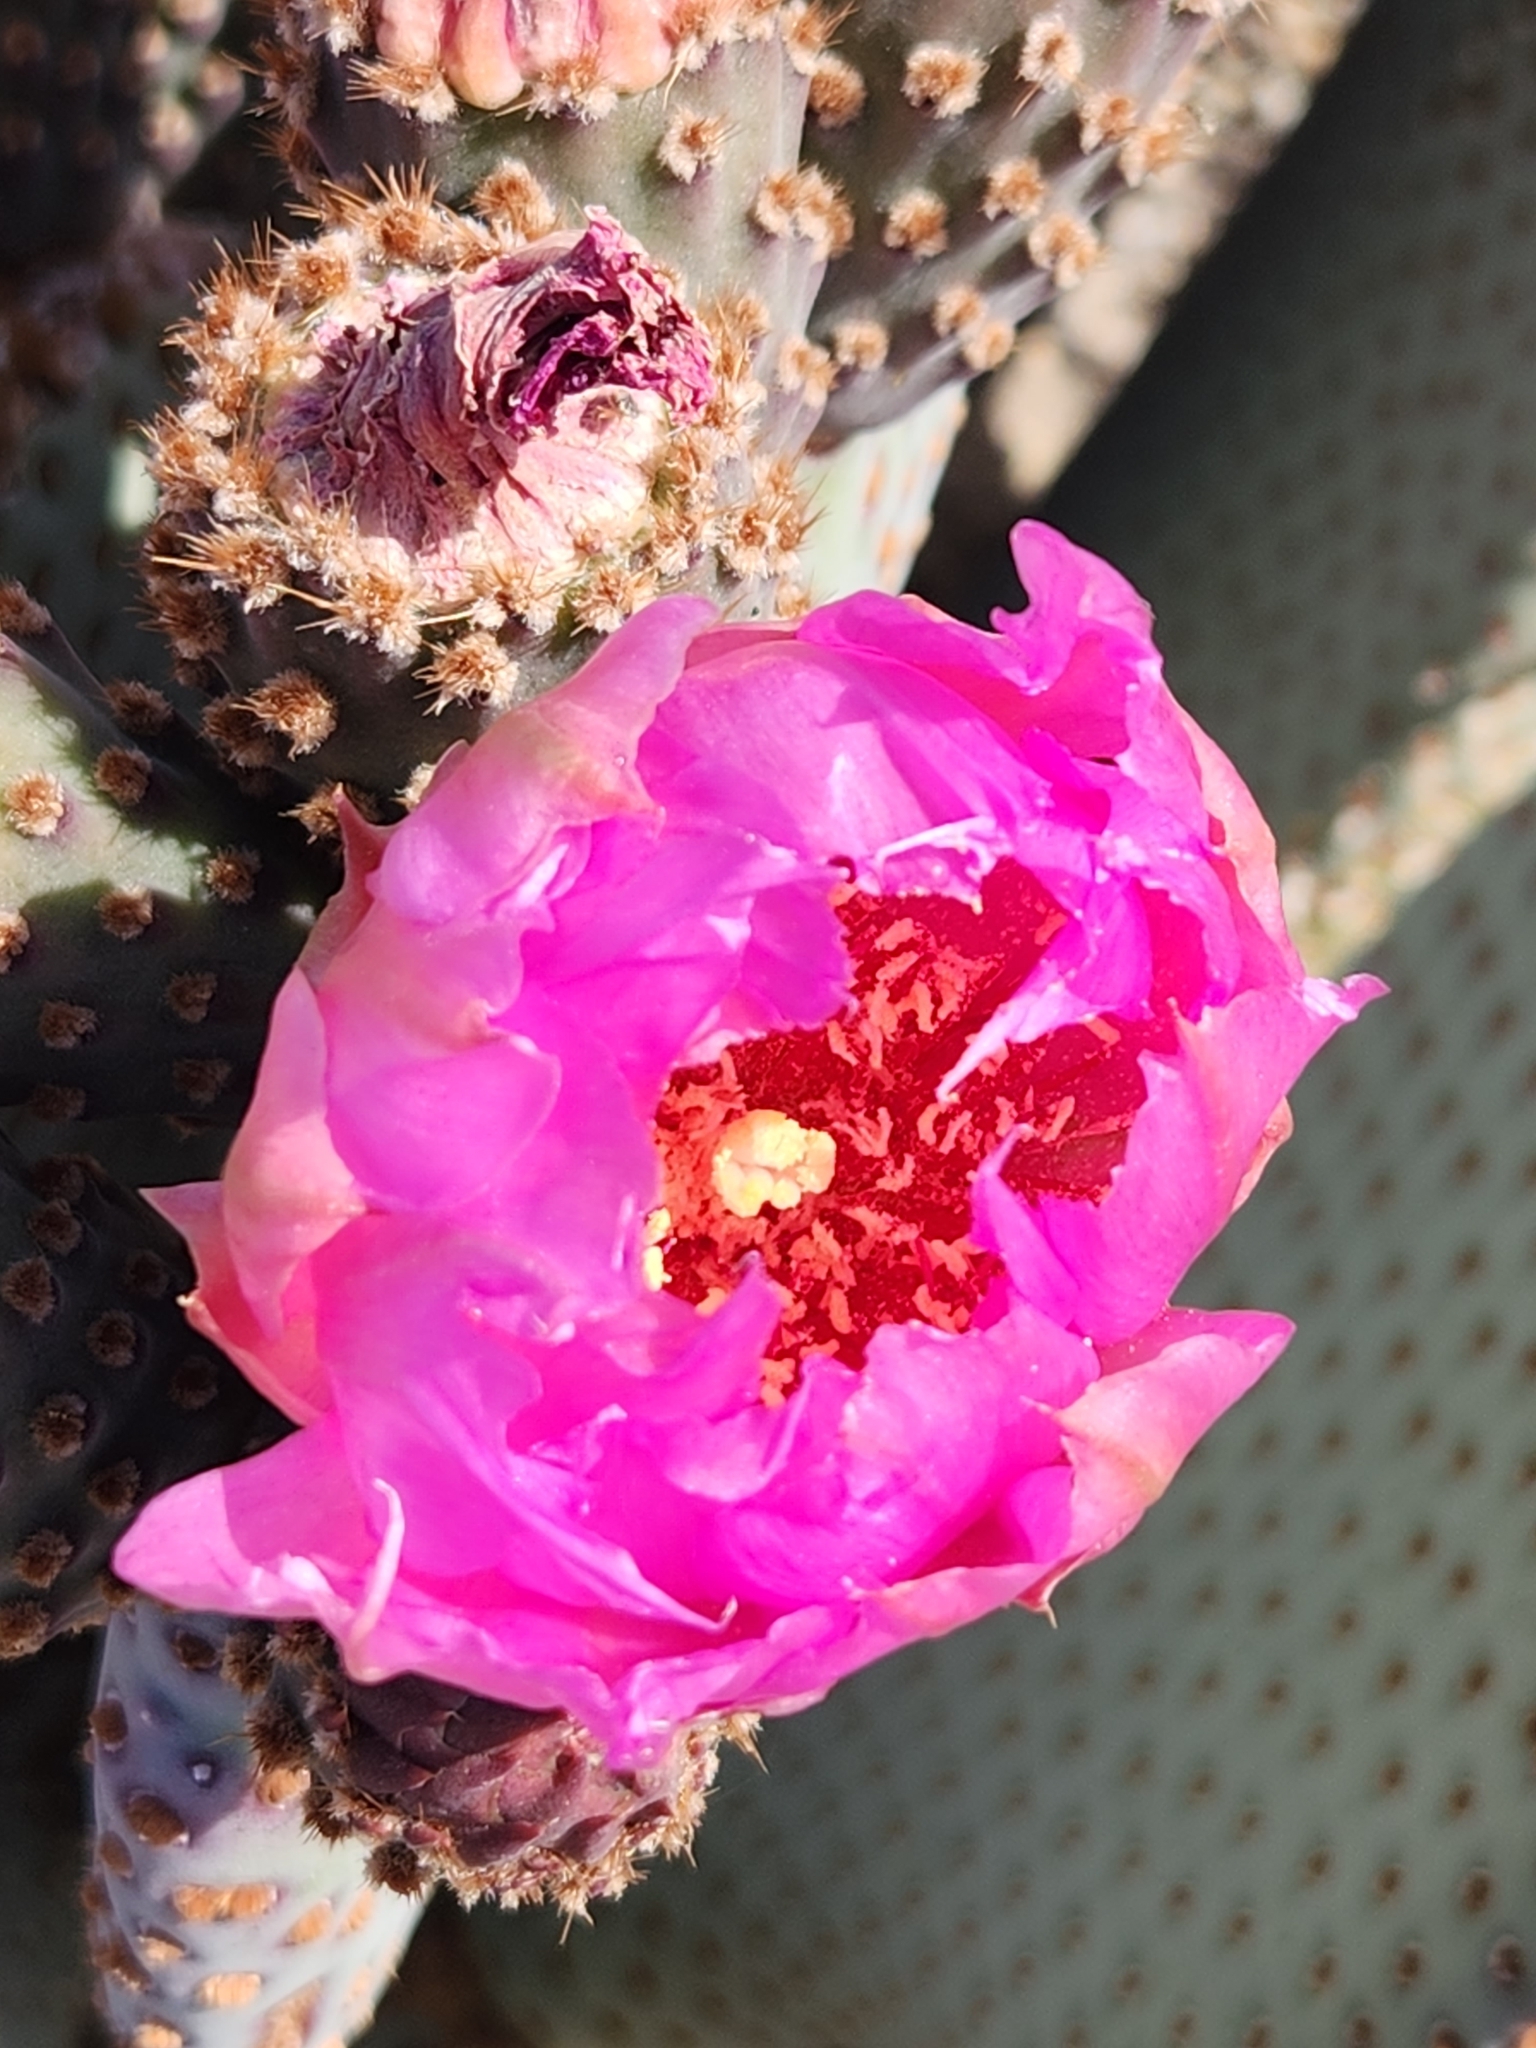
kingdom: Plantae
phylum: Tracheophyta
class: Magnoliopsida
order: Caryophyllales
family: Cactaceae
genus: Opuntia
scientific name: Opuntia basilaris
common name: Beavertail prickly-pear
